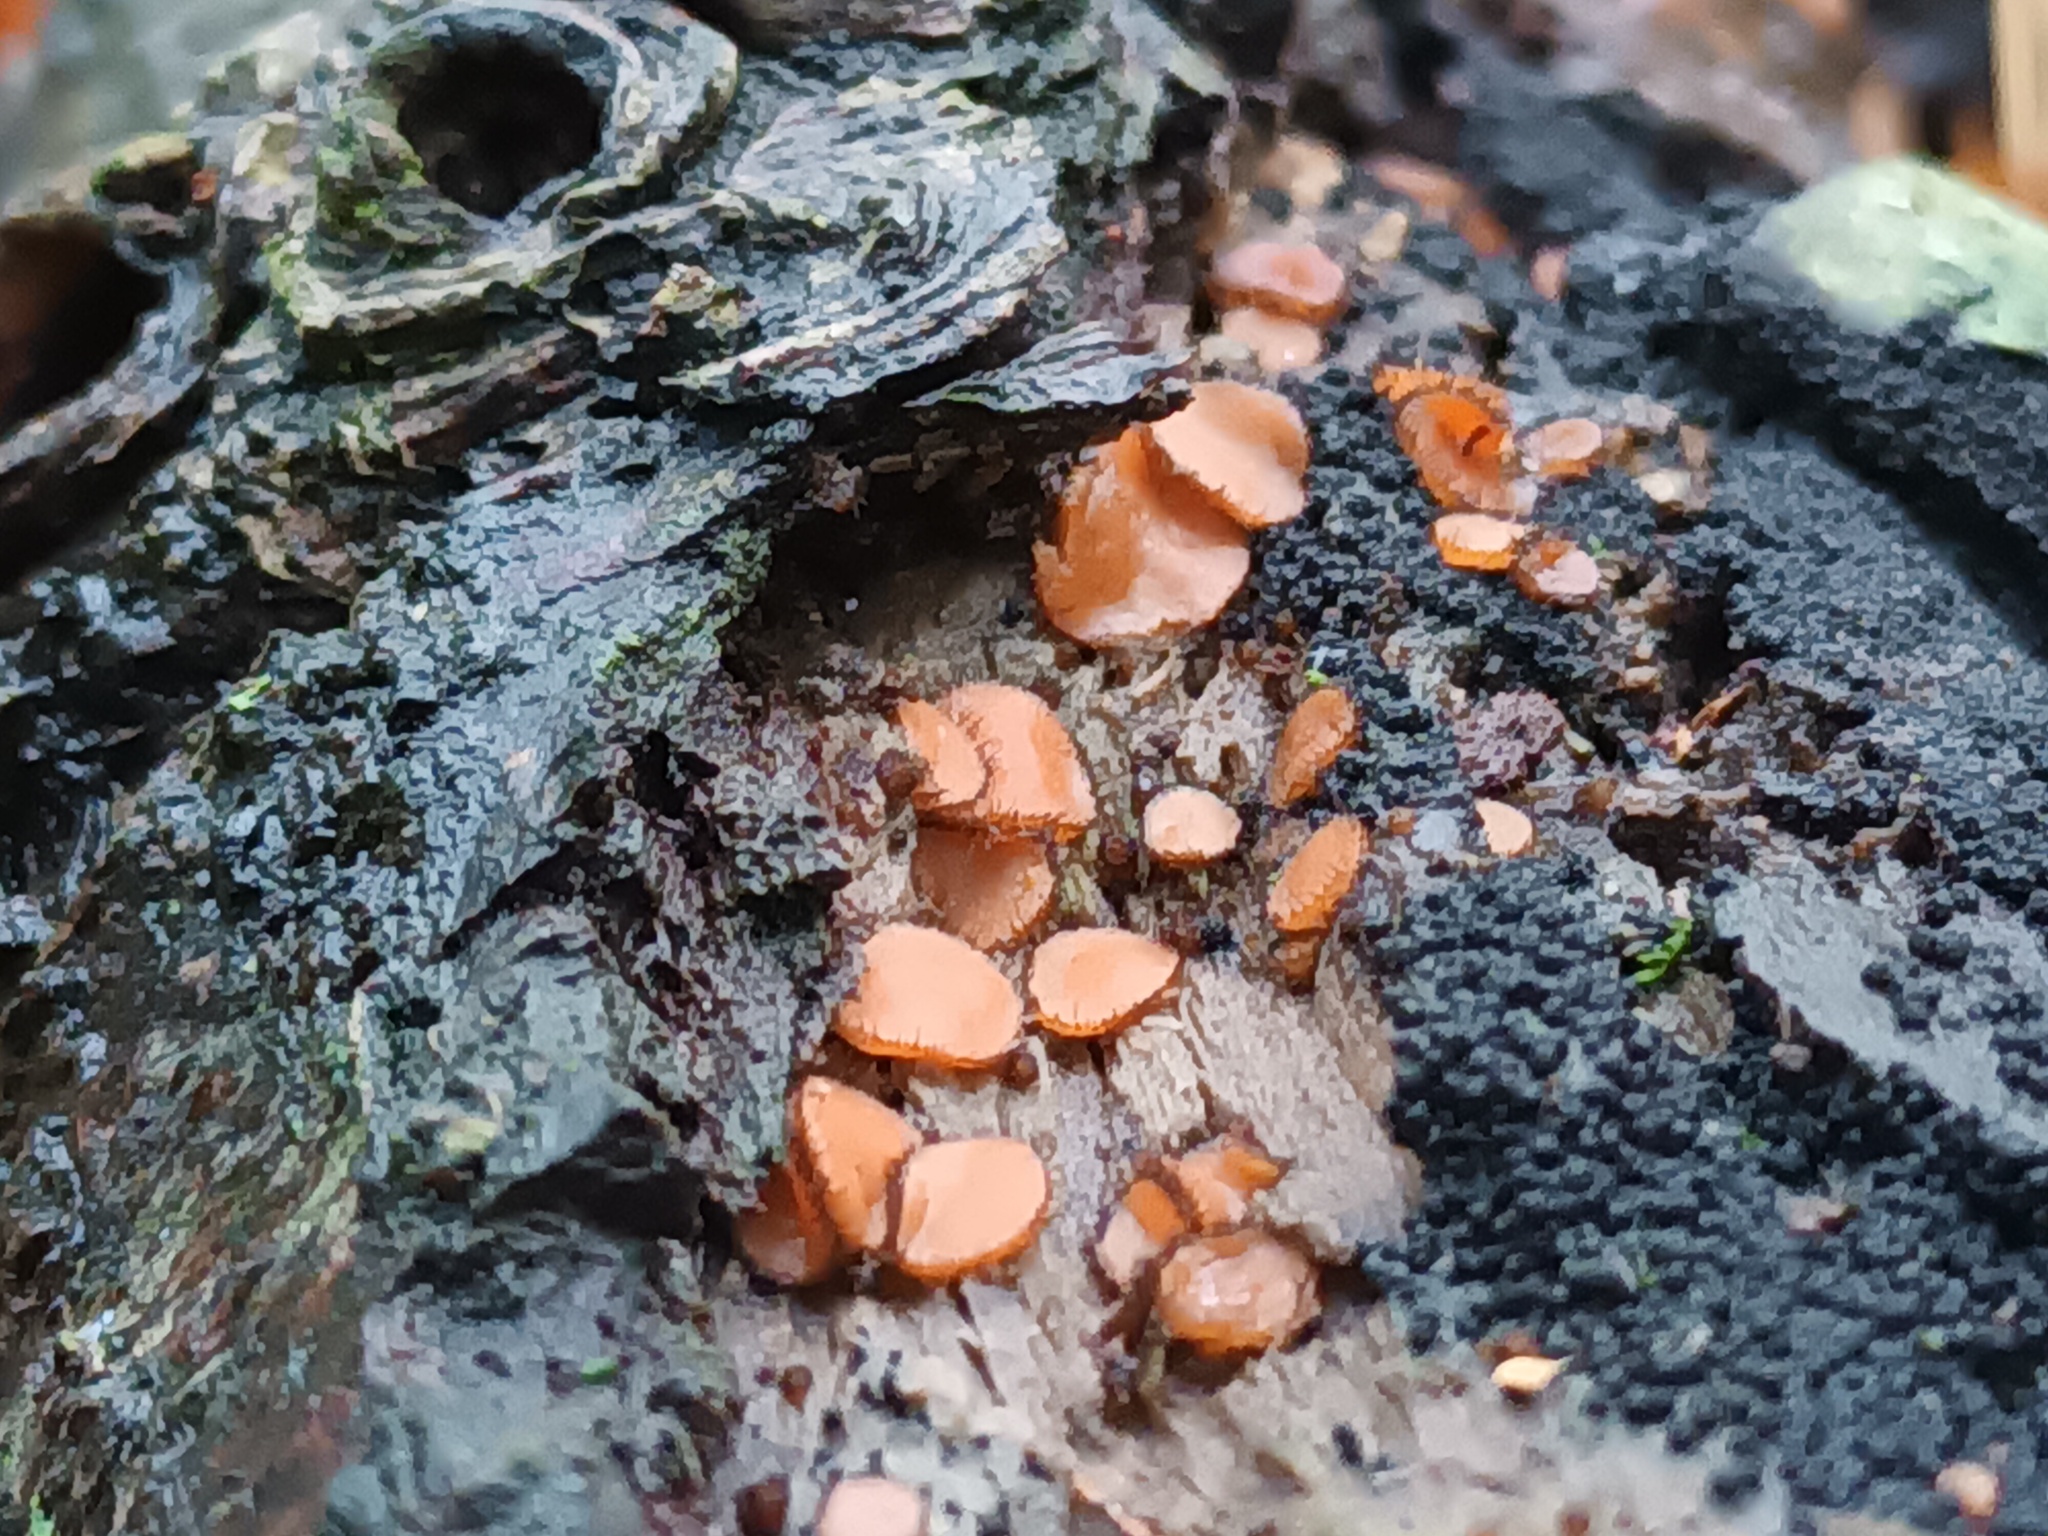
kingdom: Fungi
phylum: Ascomycota
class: Pezizomycetes
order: Pezizales
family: Pyronemataceae
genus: Scutellinia
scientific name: Scutellinia
